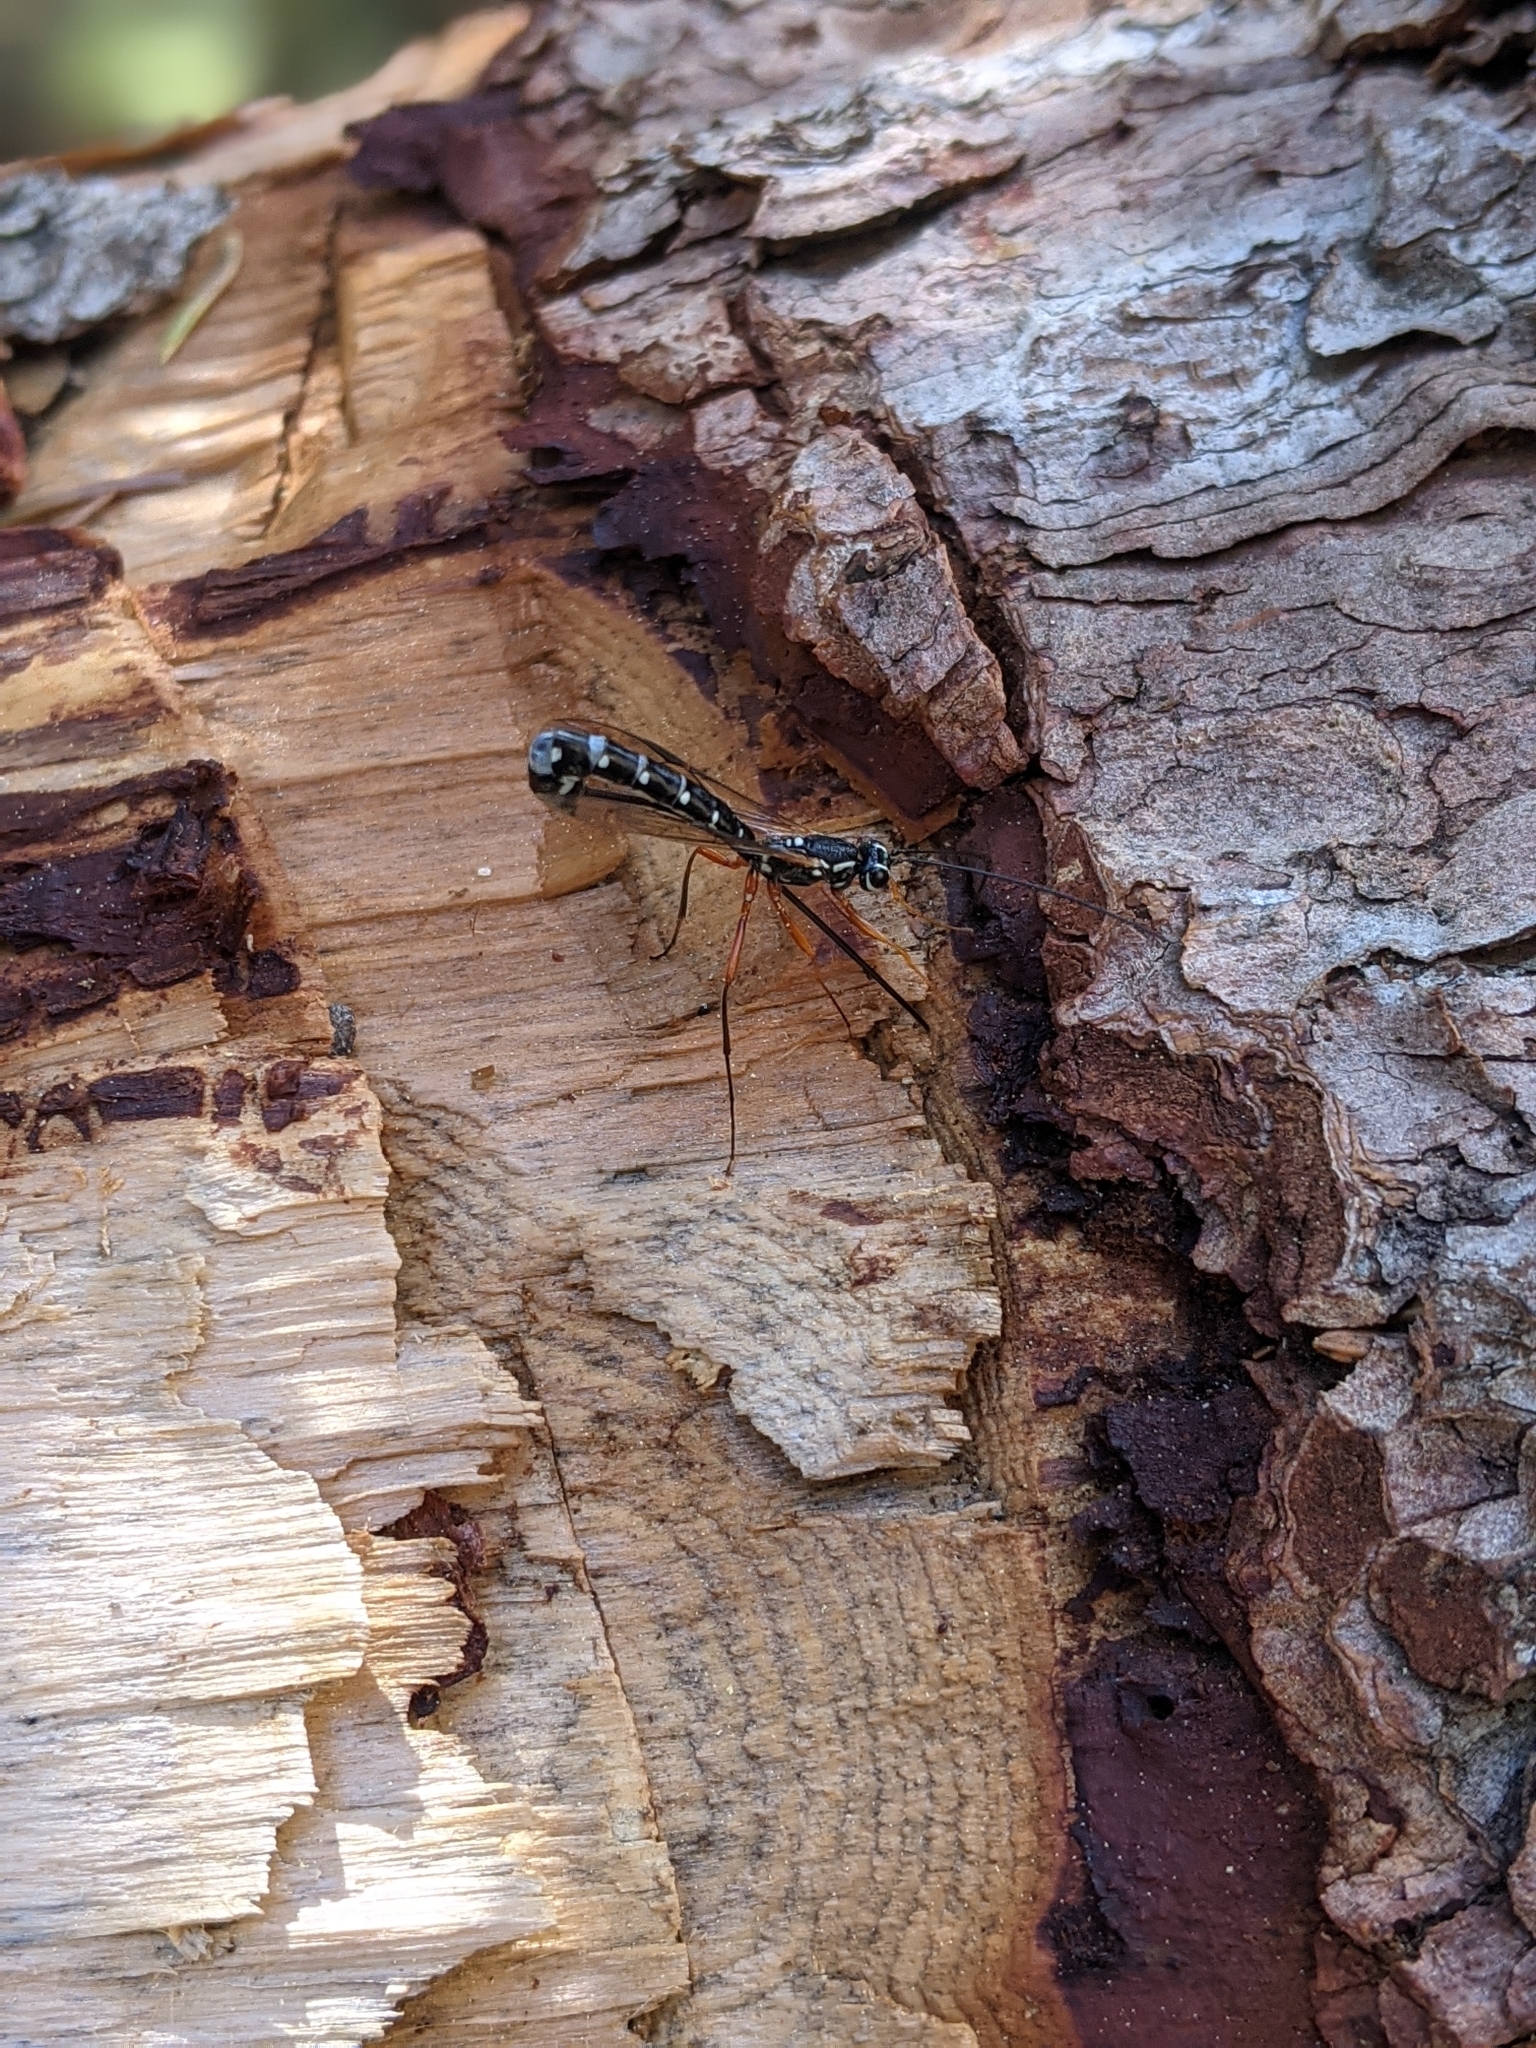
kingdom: Animalia
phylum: Arthropoda
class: Insecta
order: Hymenoptera
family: Ichneumonidae
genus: Rhyssa
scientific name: Rhyssa persuasoria
